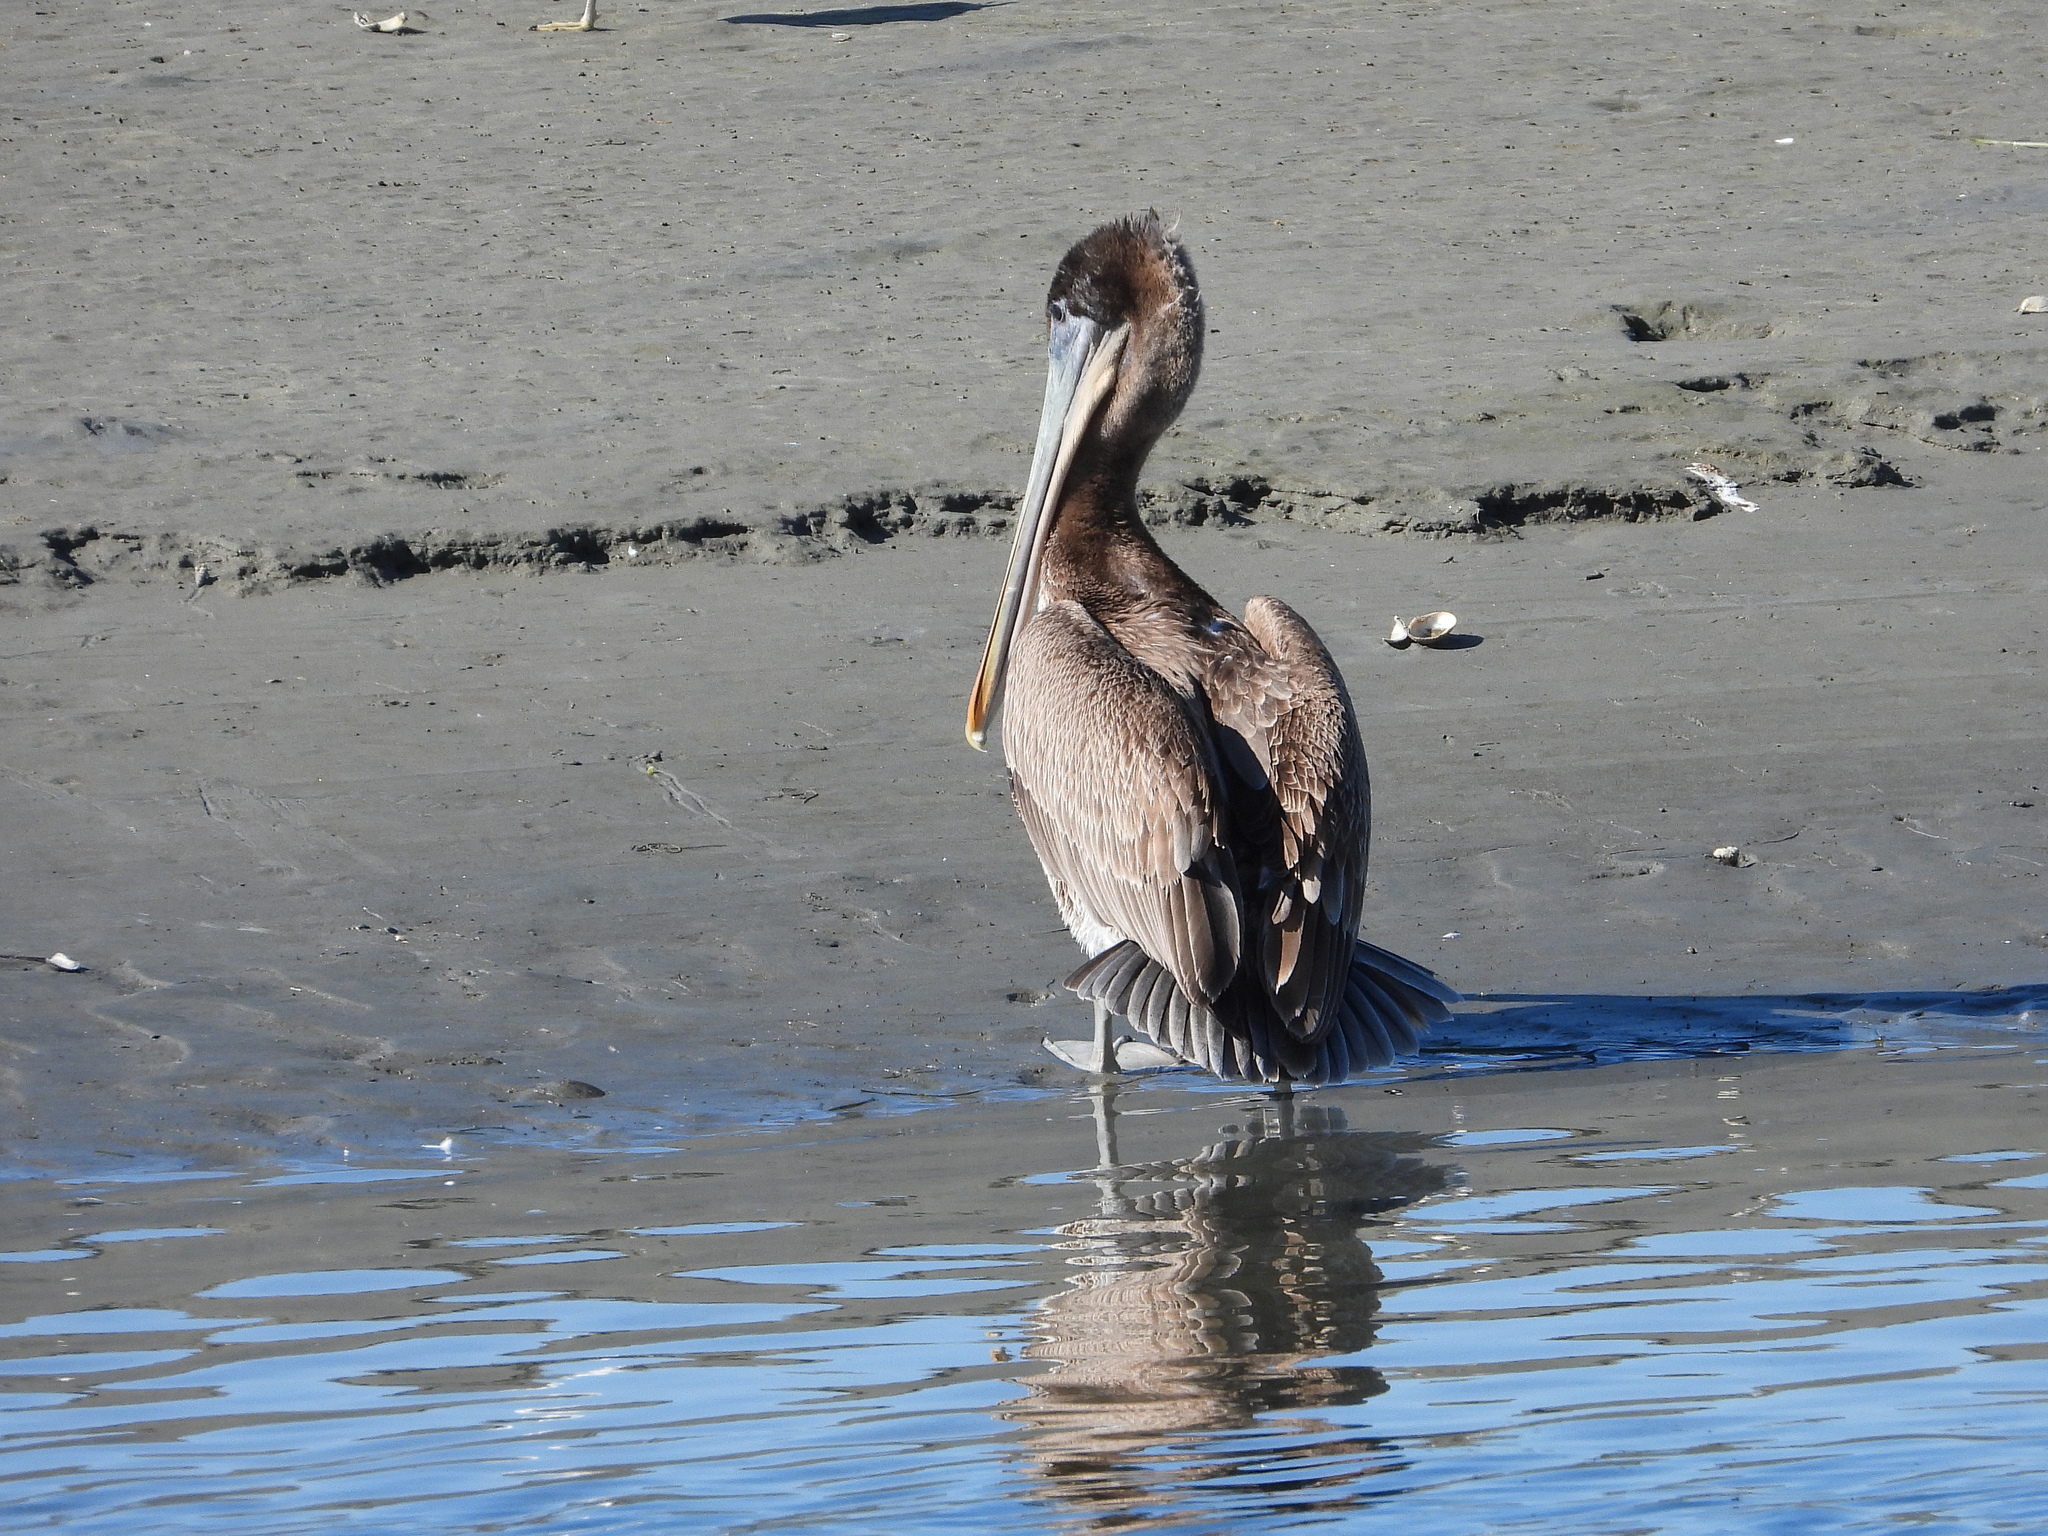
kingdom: Animalia
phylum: Chordata
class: Aves
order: Pelecaniformes
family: Pelecanidae
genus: Pelecanus
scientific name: Pelecanus occidentalis
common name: Brown pelican
